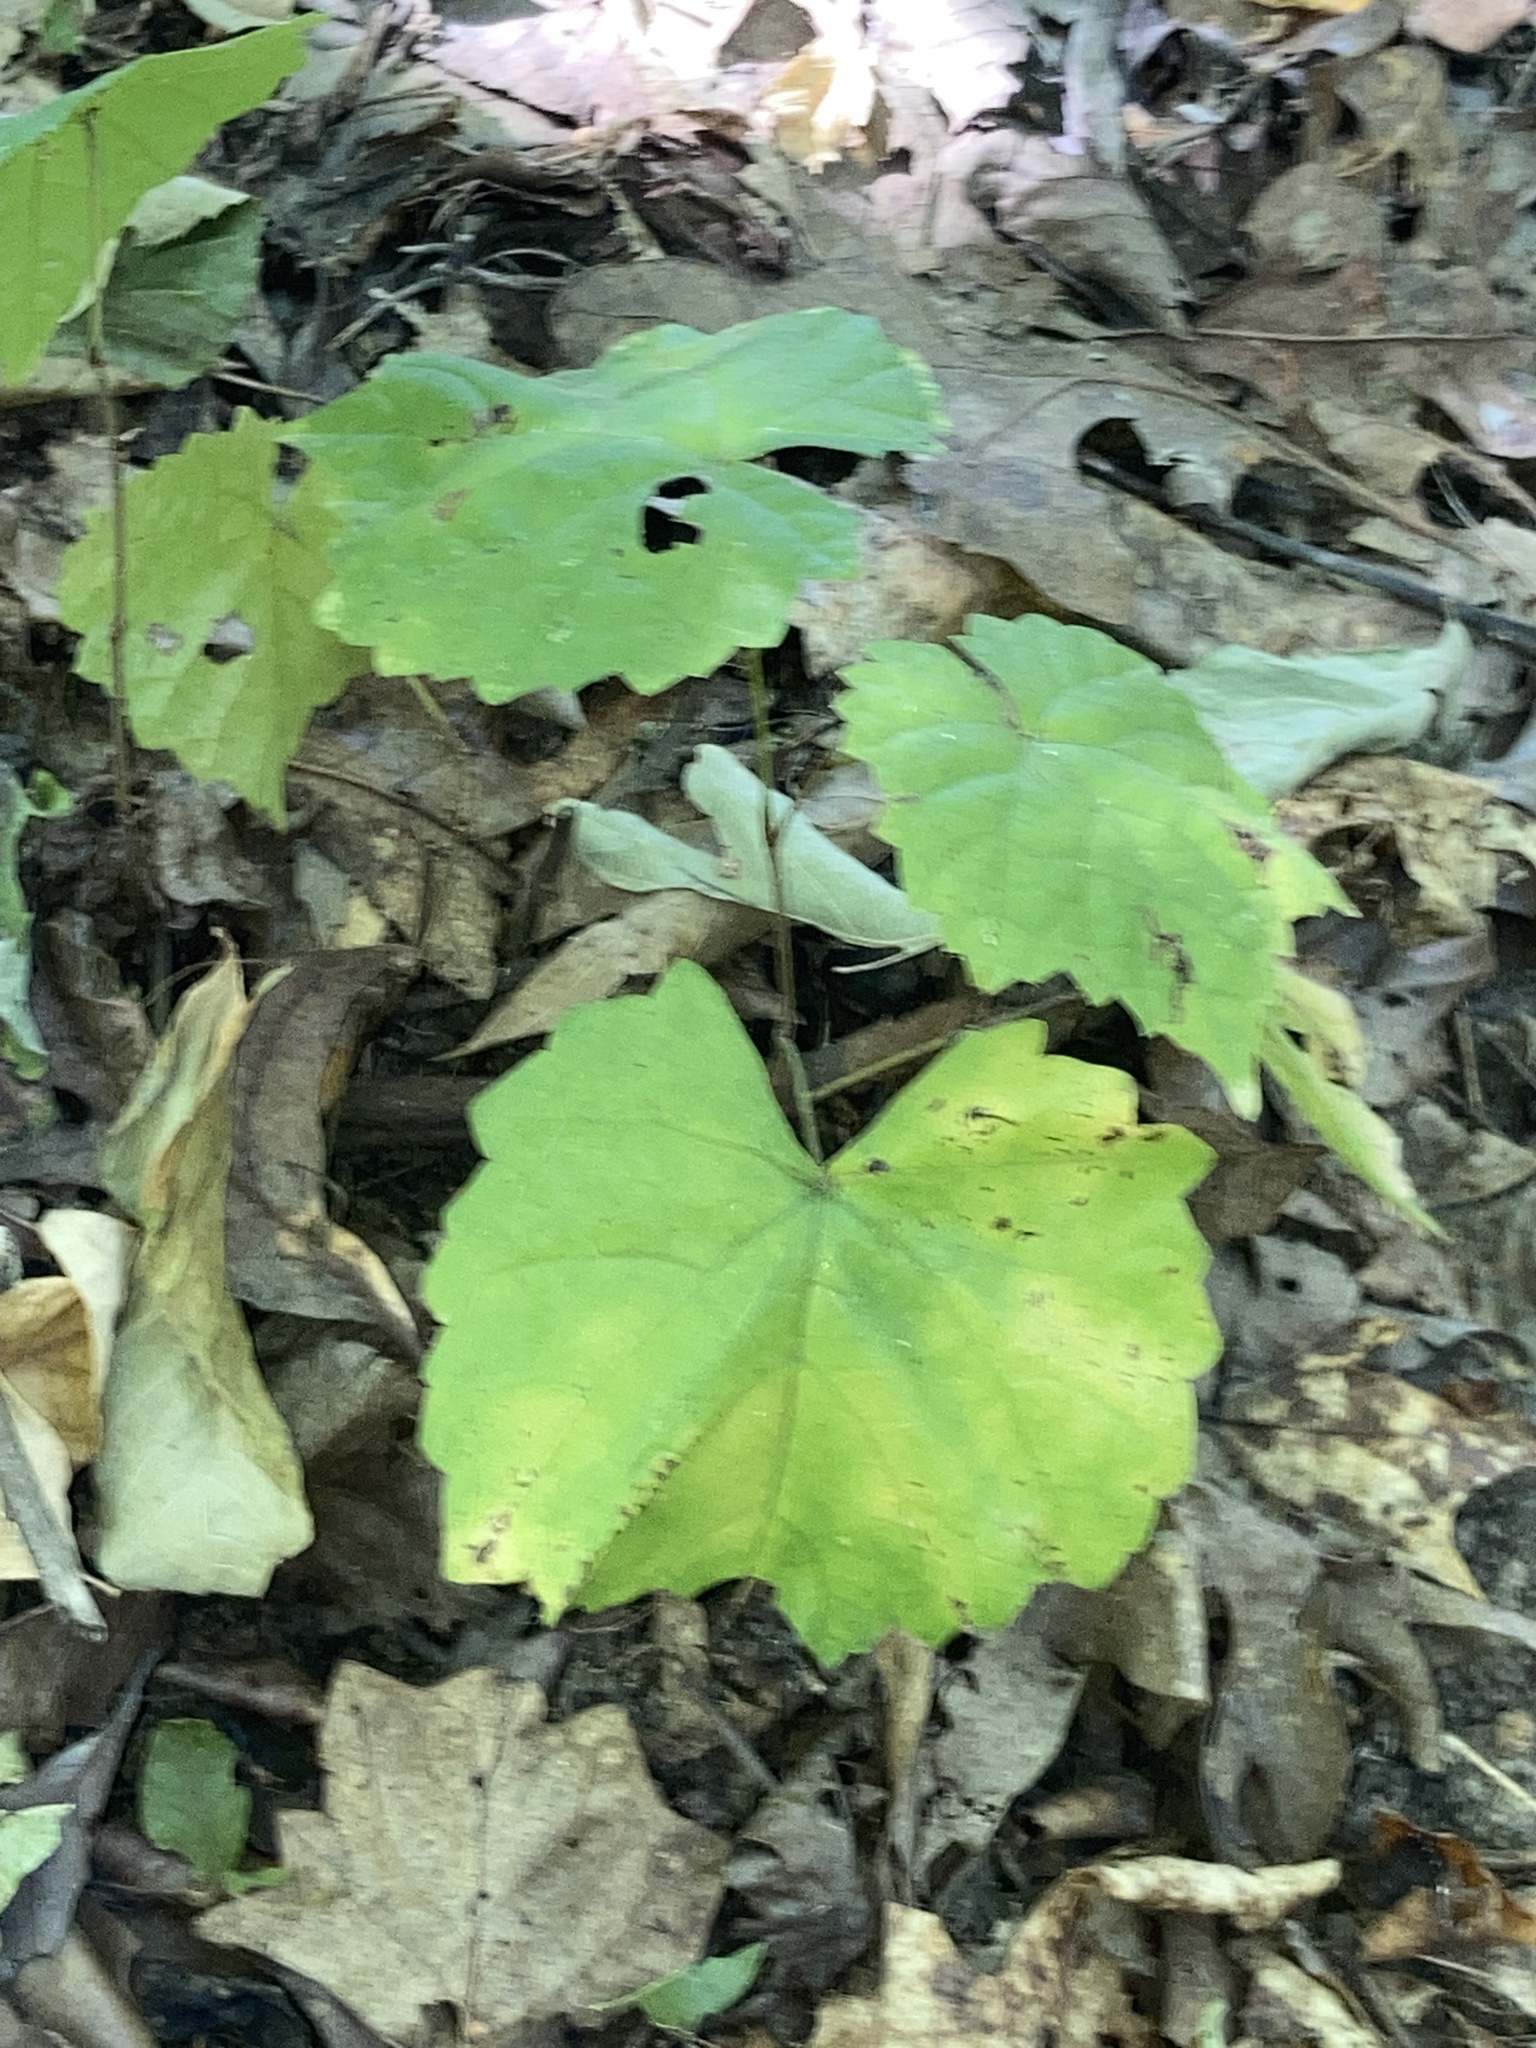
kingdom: Plantae
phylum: Tracheophyta
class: Magnoliopsida
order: Vitales
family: Vitaceae
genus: Vitis
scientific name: Vitis rotundifolia
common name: Muscadine grape
